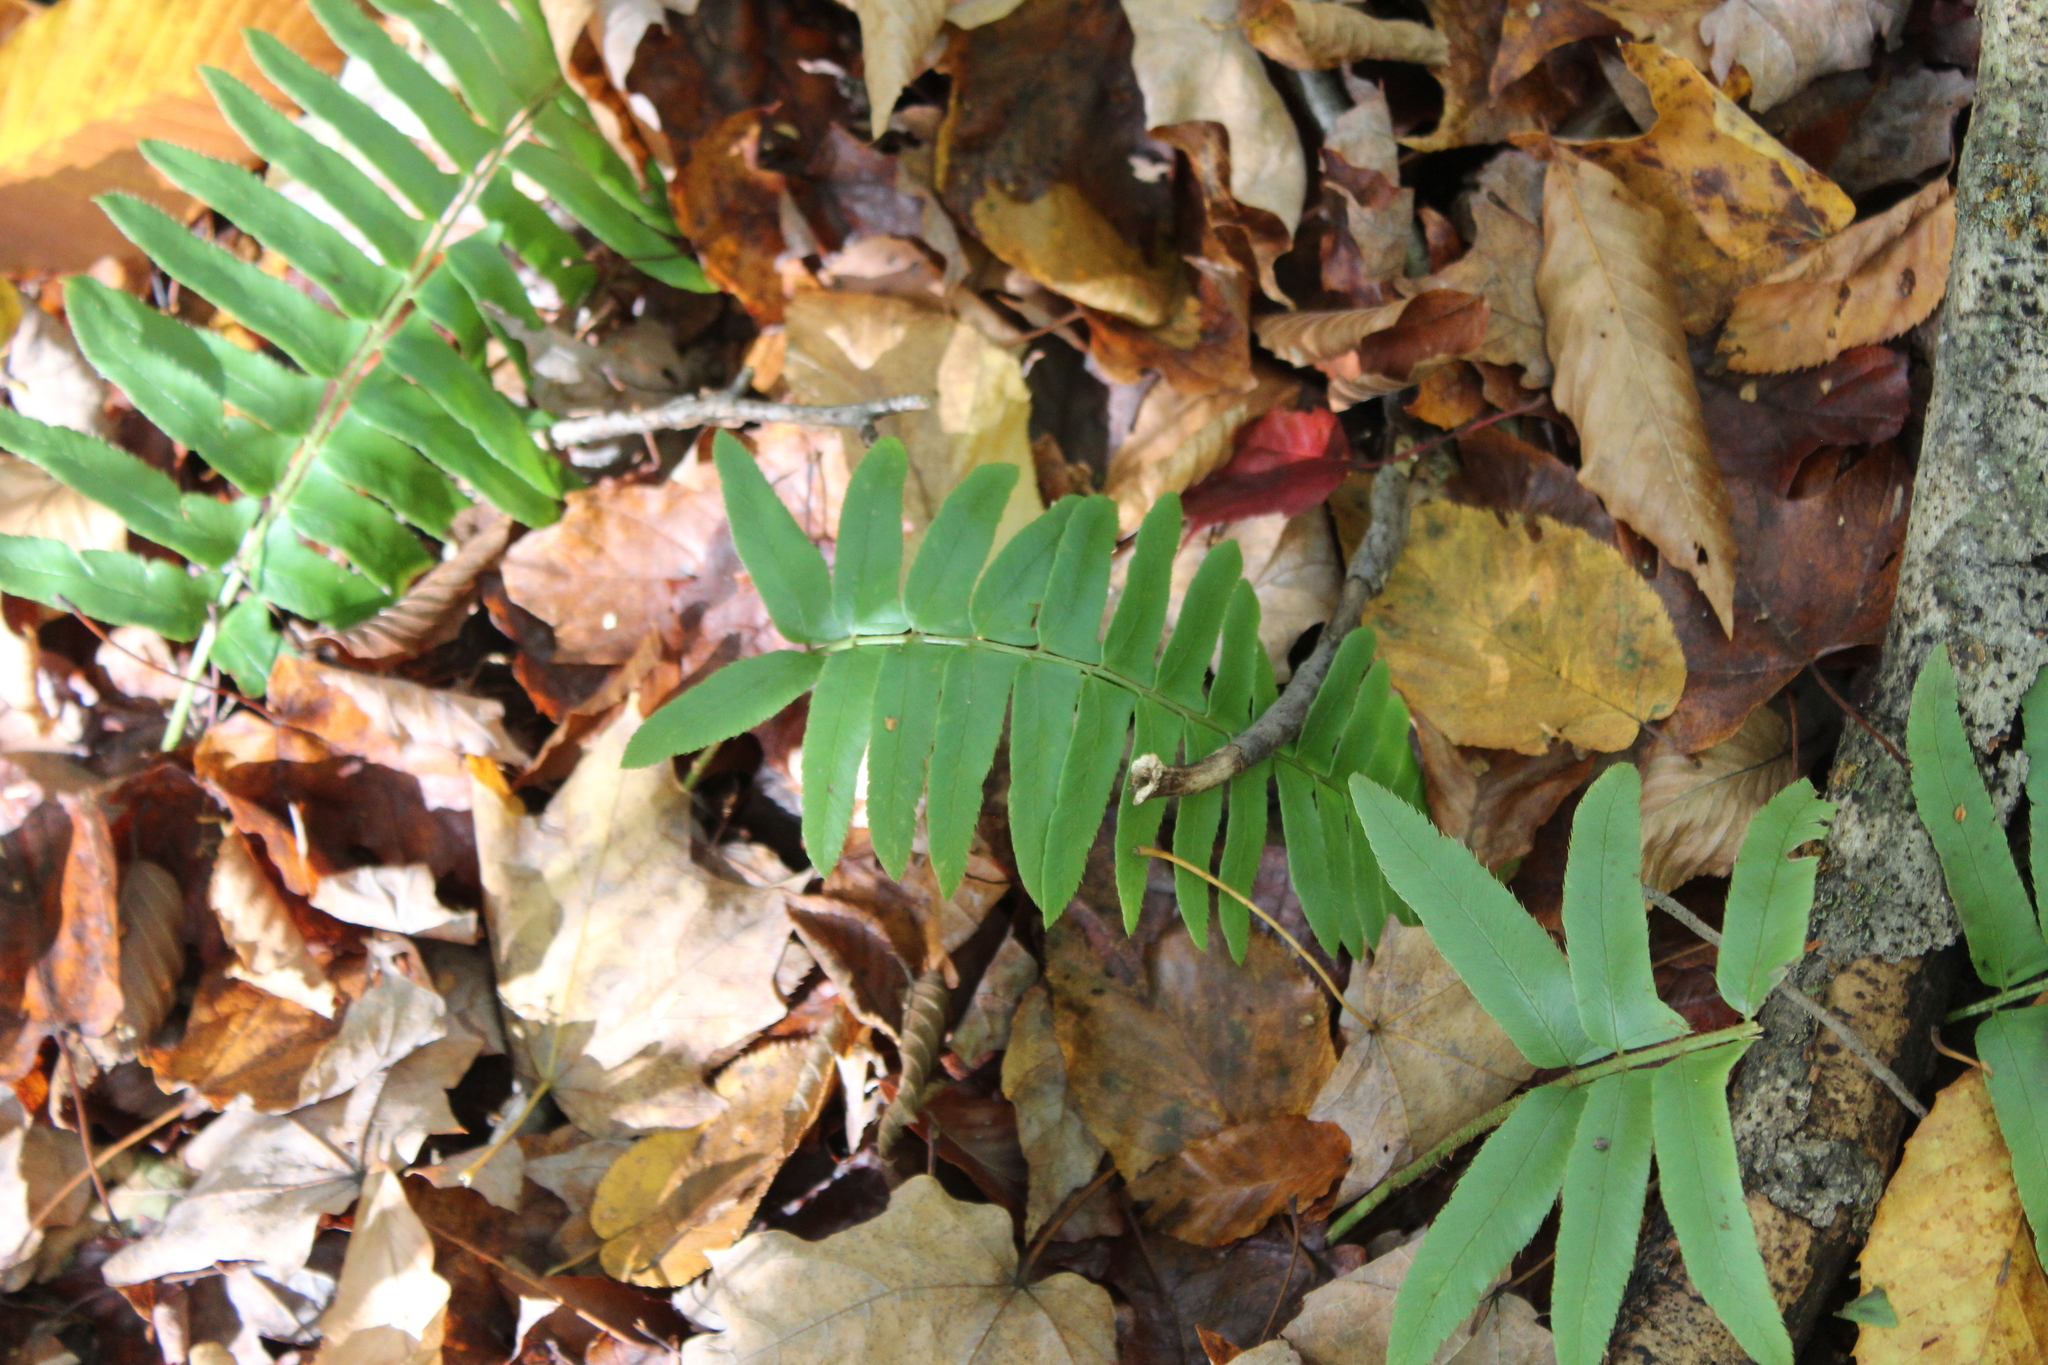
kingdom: Plantae
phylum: Tracheophyta
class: Polypodiopsida
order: Polypodiales
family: Dryopteridaceae
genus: Polystichum
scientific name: Polystichum acrostichoides
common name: Christmas fern
